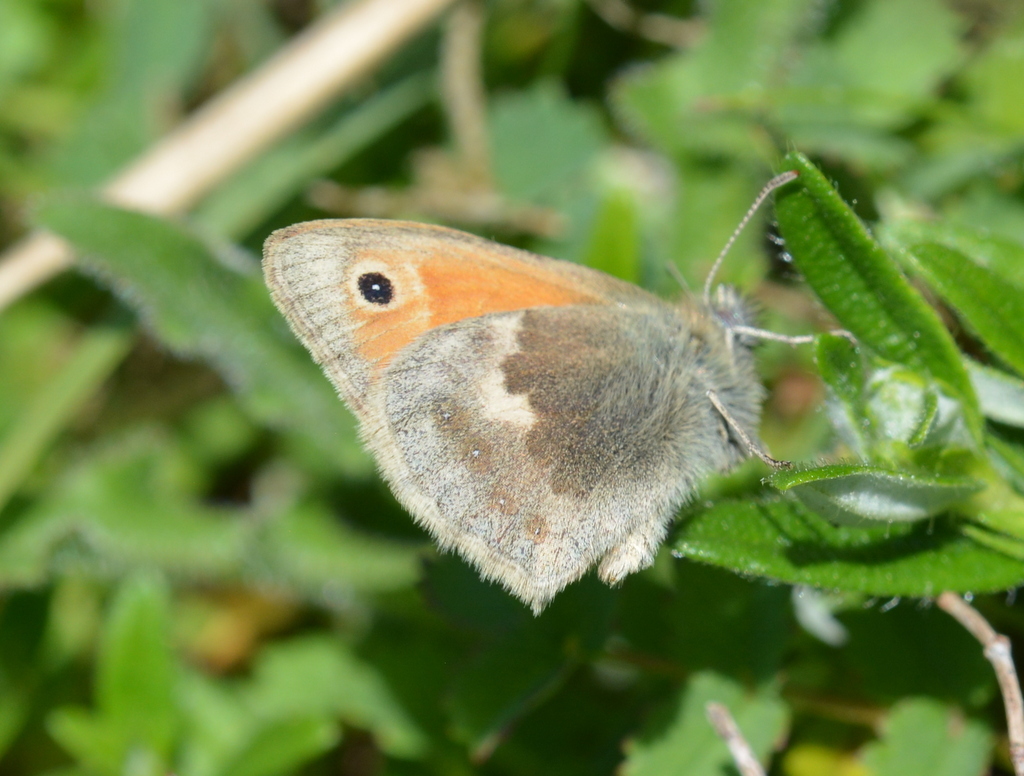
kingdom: Animalia
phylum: Arthropoda
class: Insecta
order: Lepidoptera
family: Nymphalidae
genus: Coenonympha
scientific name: Coenonympha pamphilus
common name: Small heath
